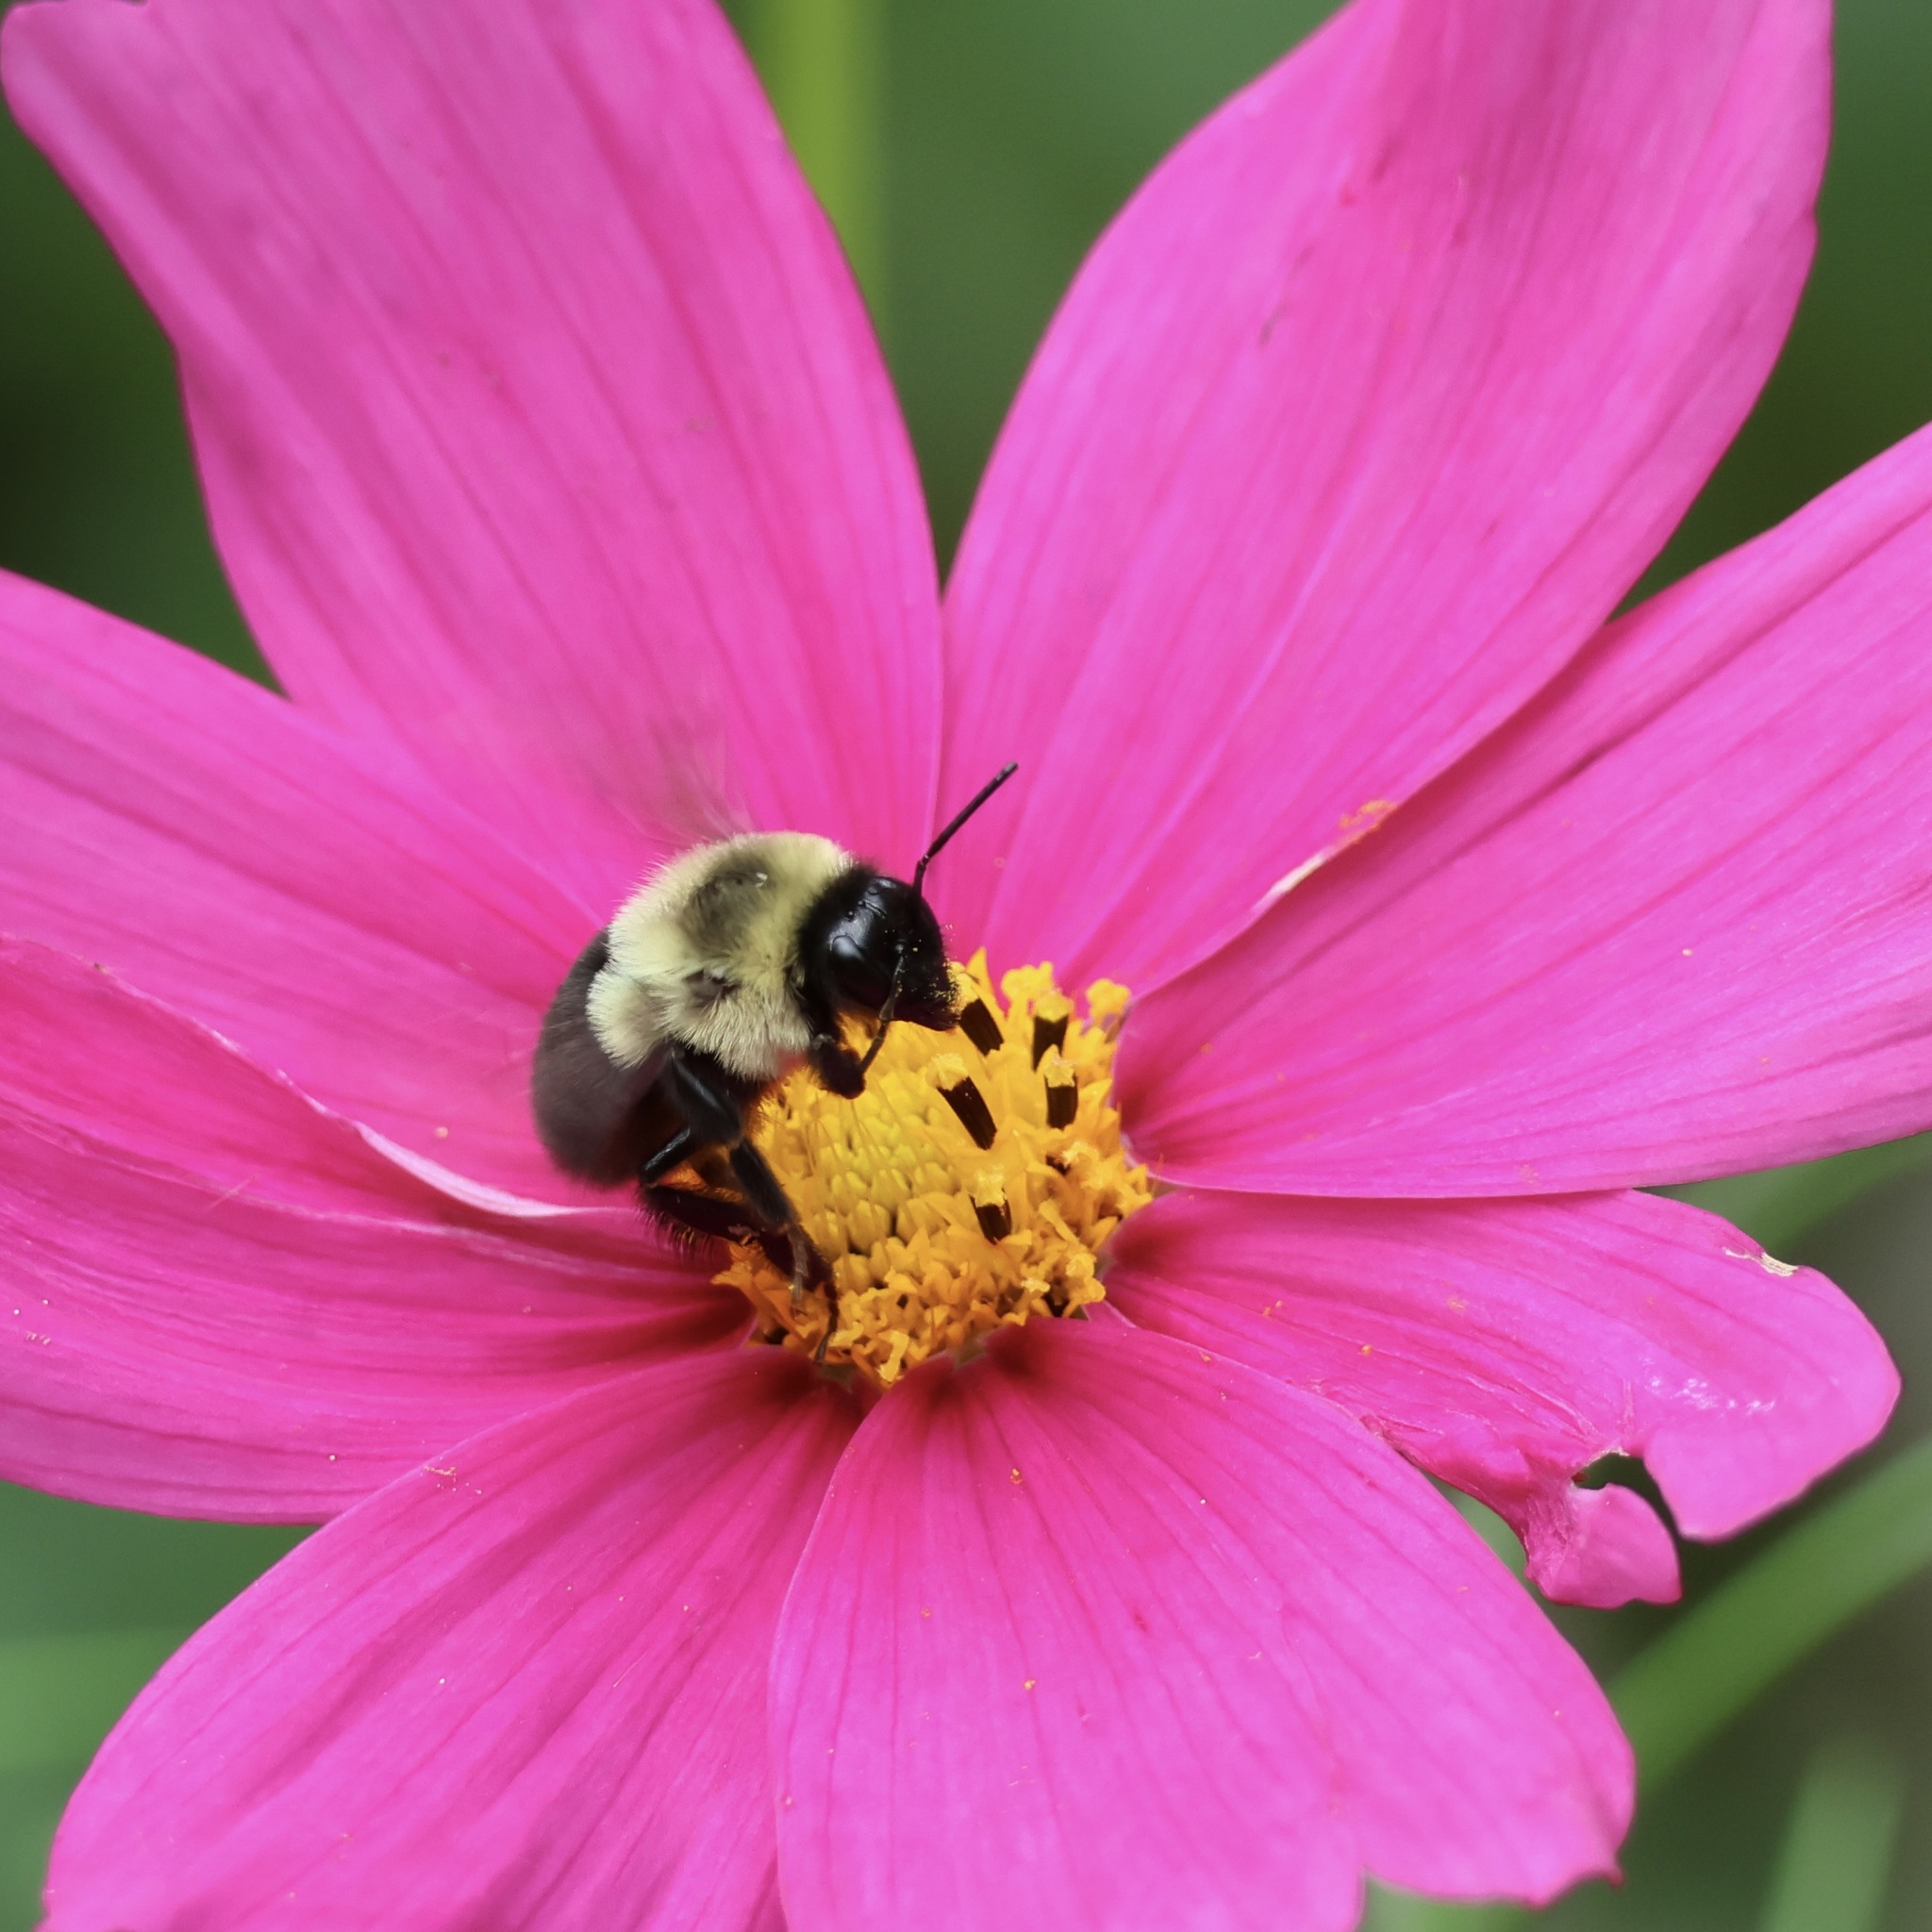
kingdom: Animalia
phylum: Arthropoda
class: Insecta
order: Hymenoptera
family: Apidae
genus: Bombus
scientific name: Bombus impatiens
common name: Common eastern bumble bee
